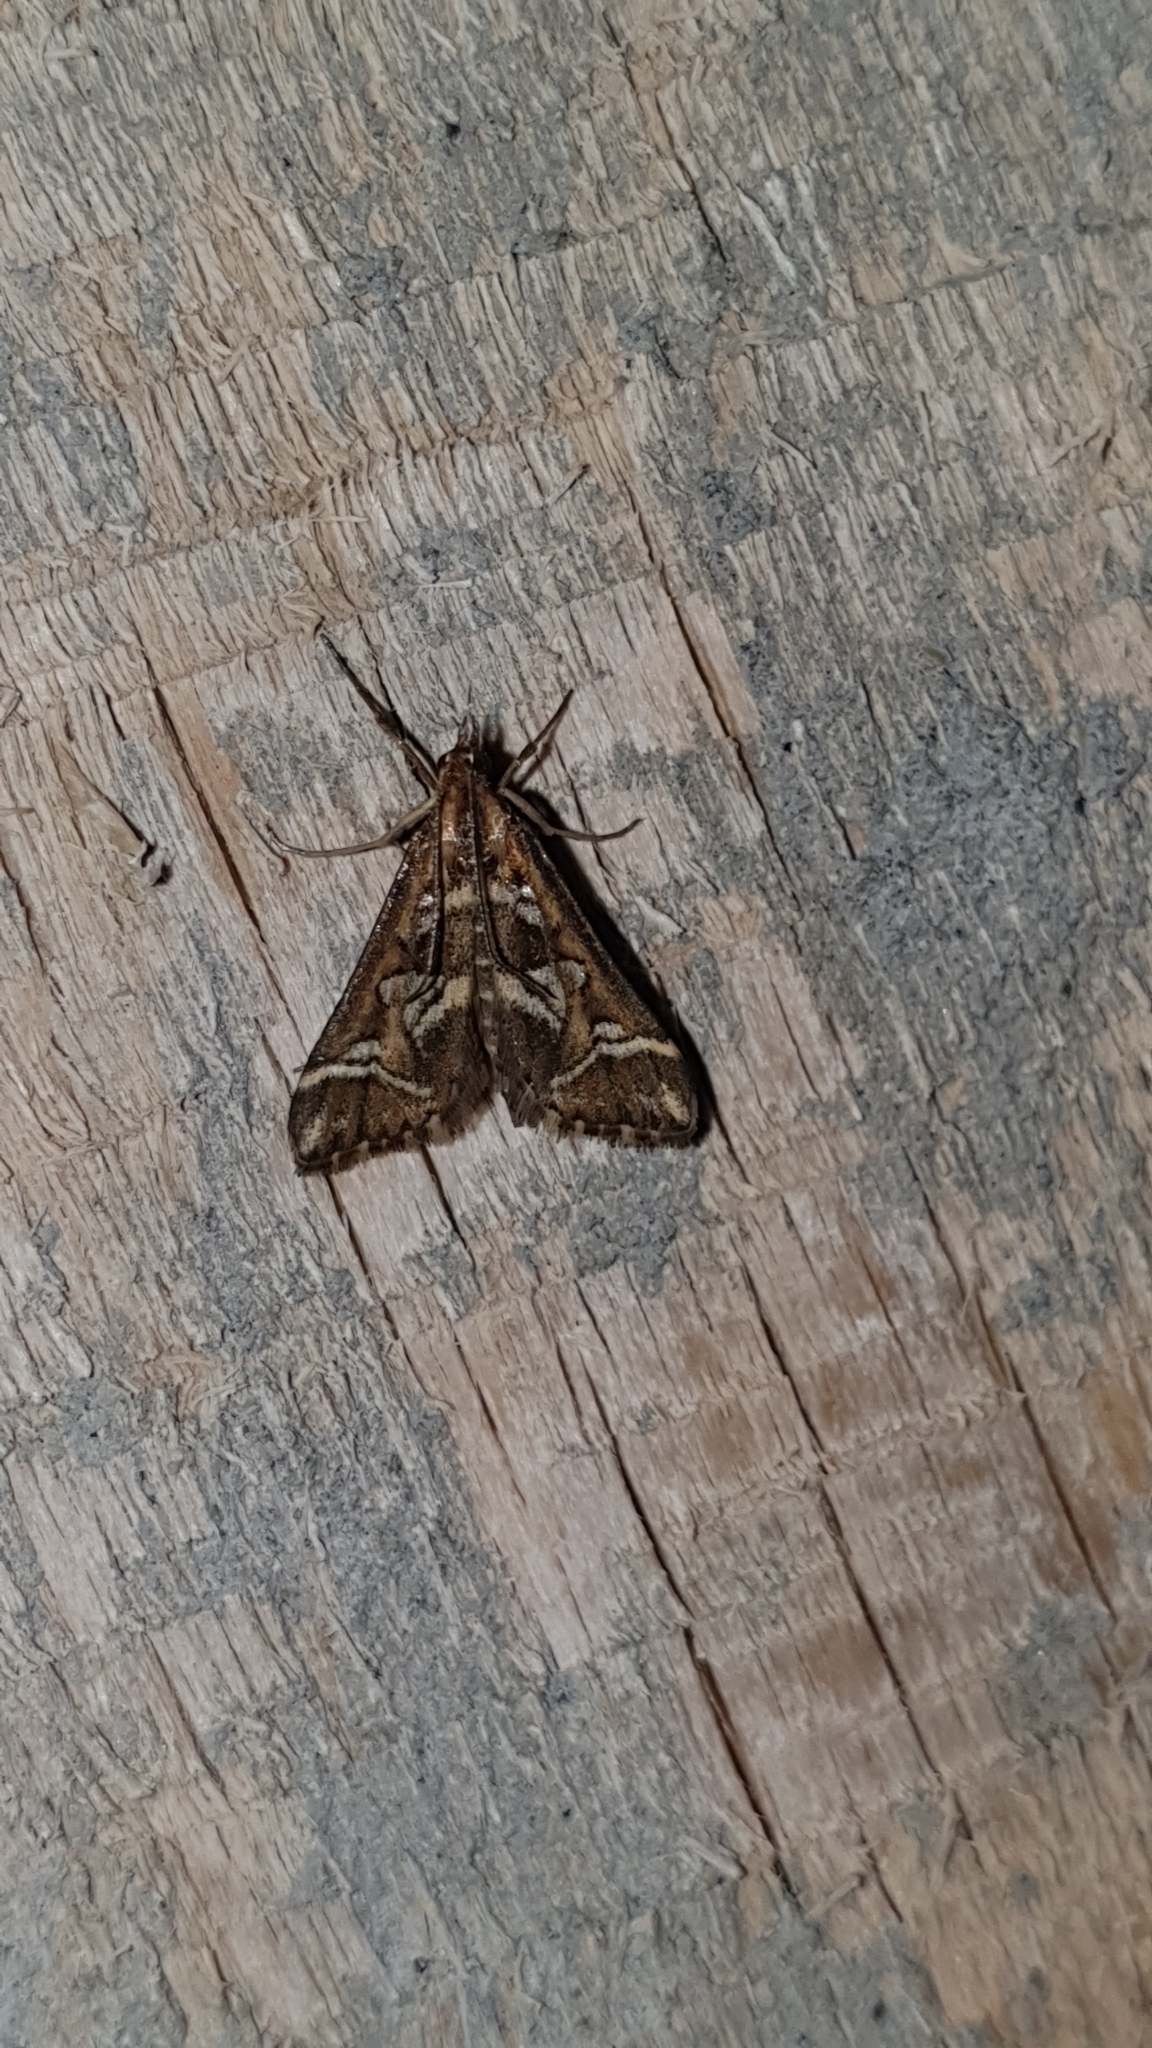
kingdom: Animalia
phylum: Arthropoda
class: Insecta
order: Lepidoptera
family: Crambidae
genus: Diasemia
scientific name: Diasemia reticularis
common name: Lettered china-mark
